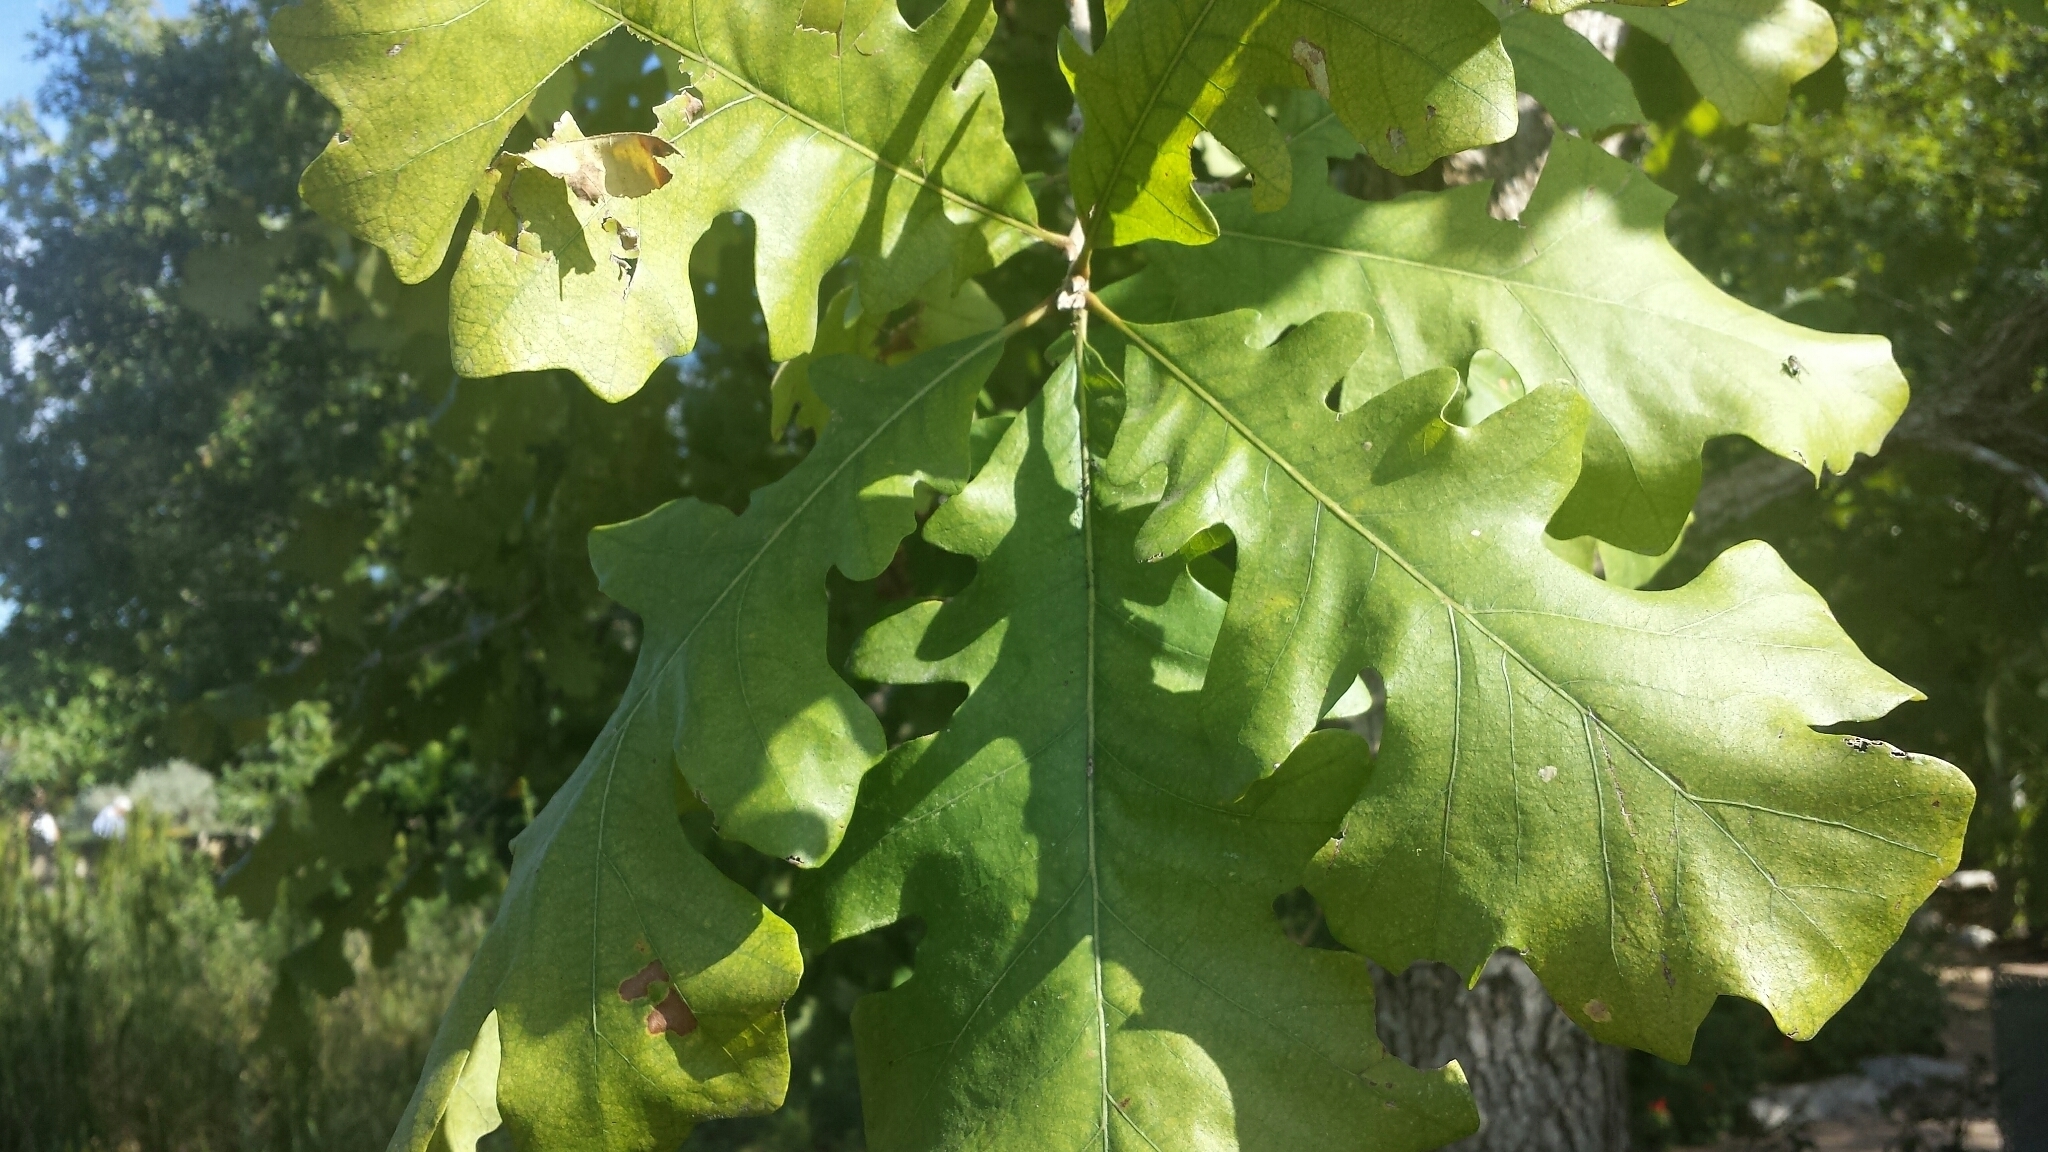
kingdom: Plantae
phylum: Tracheophyta
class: Magnoliopsida
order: Fagales
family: Fagaceae
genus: Quercus
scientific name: Quercus macrocarpa
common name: Bur oak
